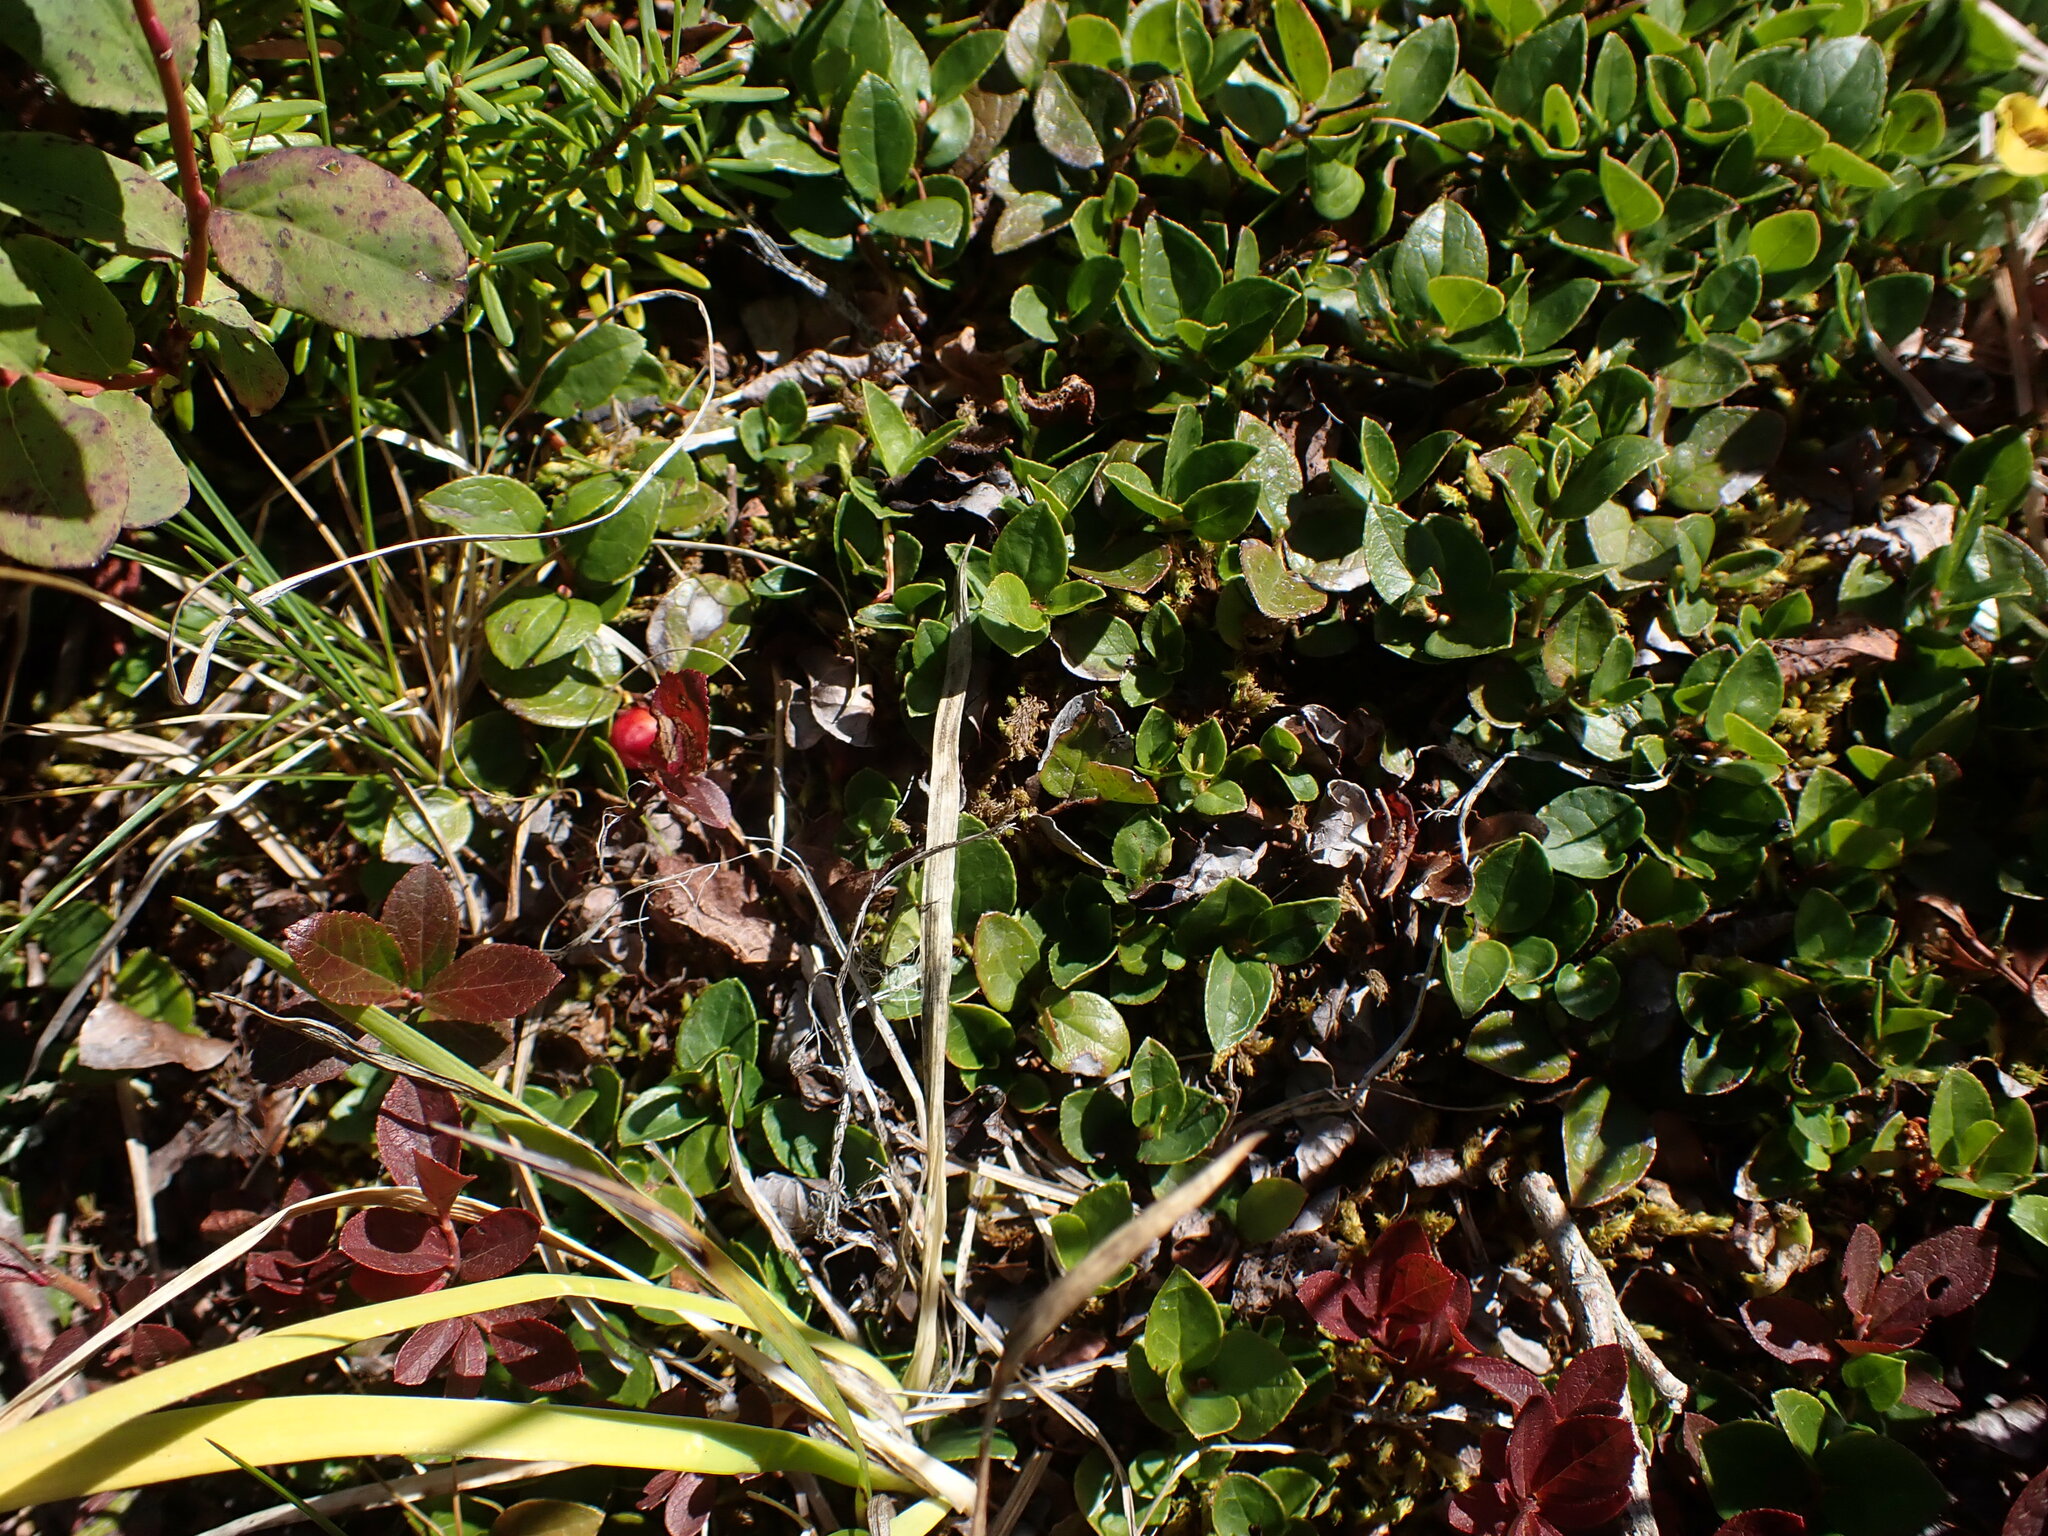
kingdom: Plantae
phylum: Tracheophyta
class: Magnoliopsida
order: Ericales
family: Ericaceae
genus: Gaultheria
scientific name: Gaultheria ovatifolia
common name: Oregon wintergreen
